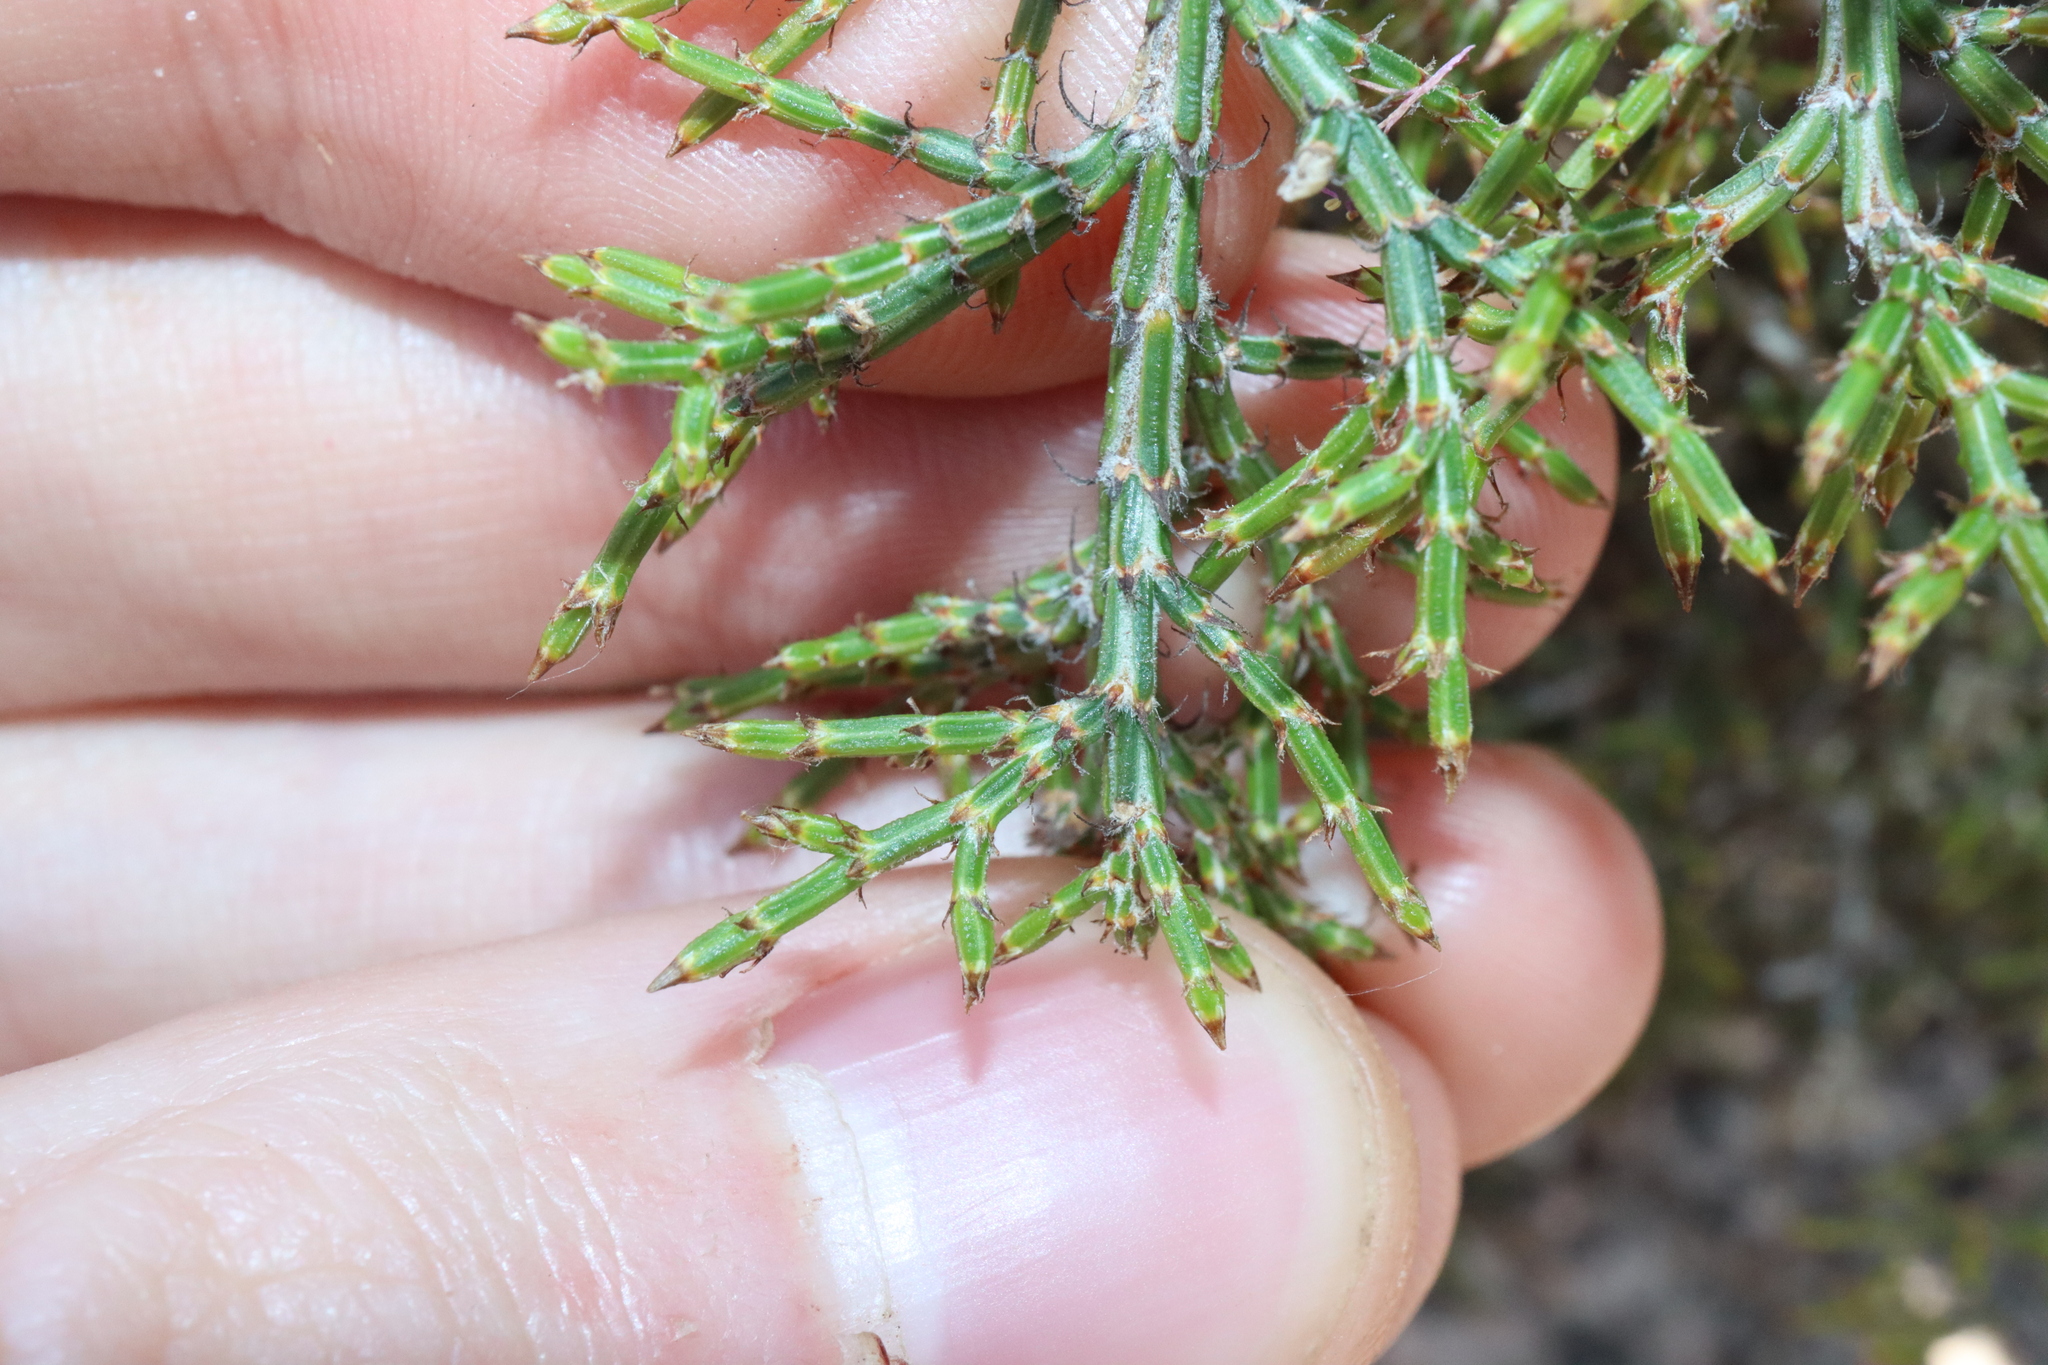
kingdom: Plantae
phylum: Tracheophyta
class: Magnoliopsida
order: Fagales
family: Casuarinaceae
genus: Allocasuarina
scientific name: Allocasuarina microstachya
